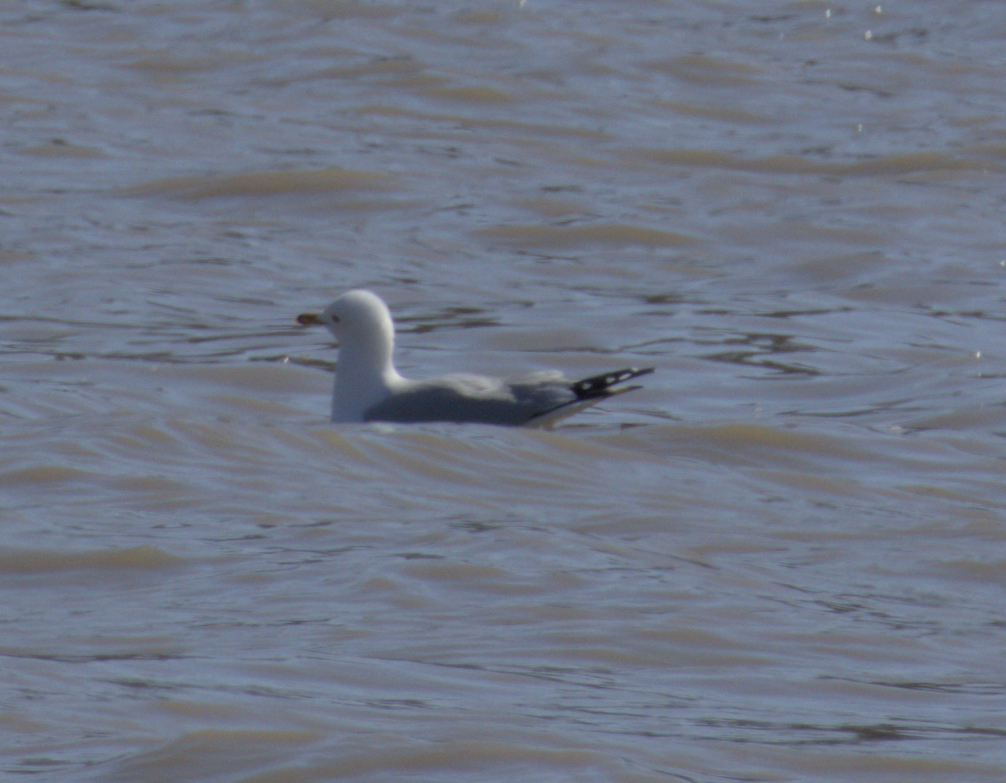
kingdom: Animalia
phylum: Chordata
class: Aves
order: Charadriiformes
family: Laridae
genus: Larus
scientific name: Larus delawarensis
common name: Ring-billed gull
